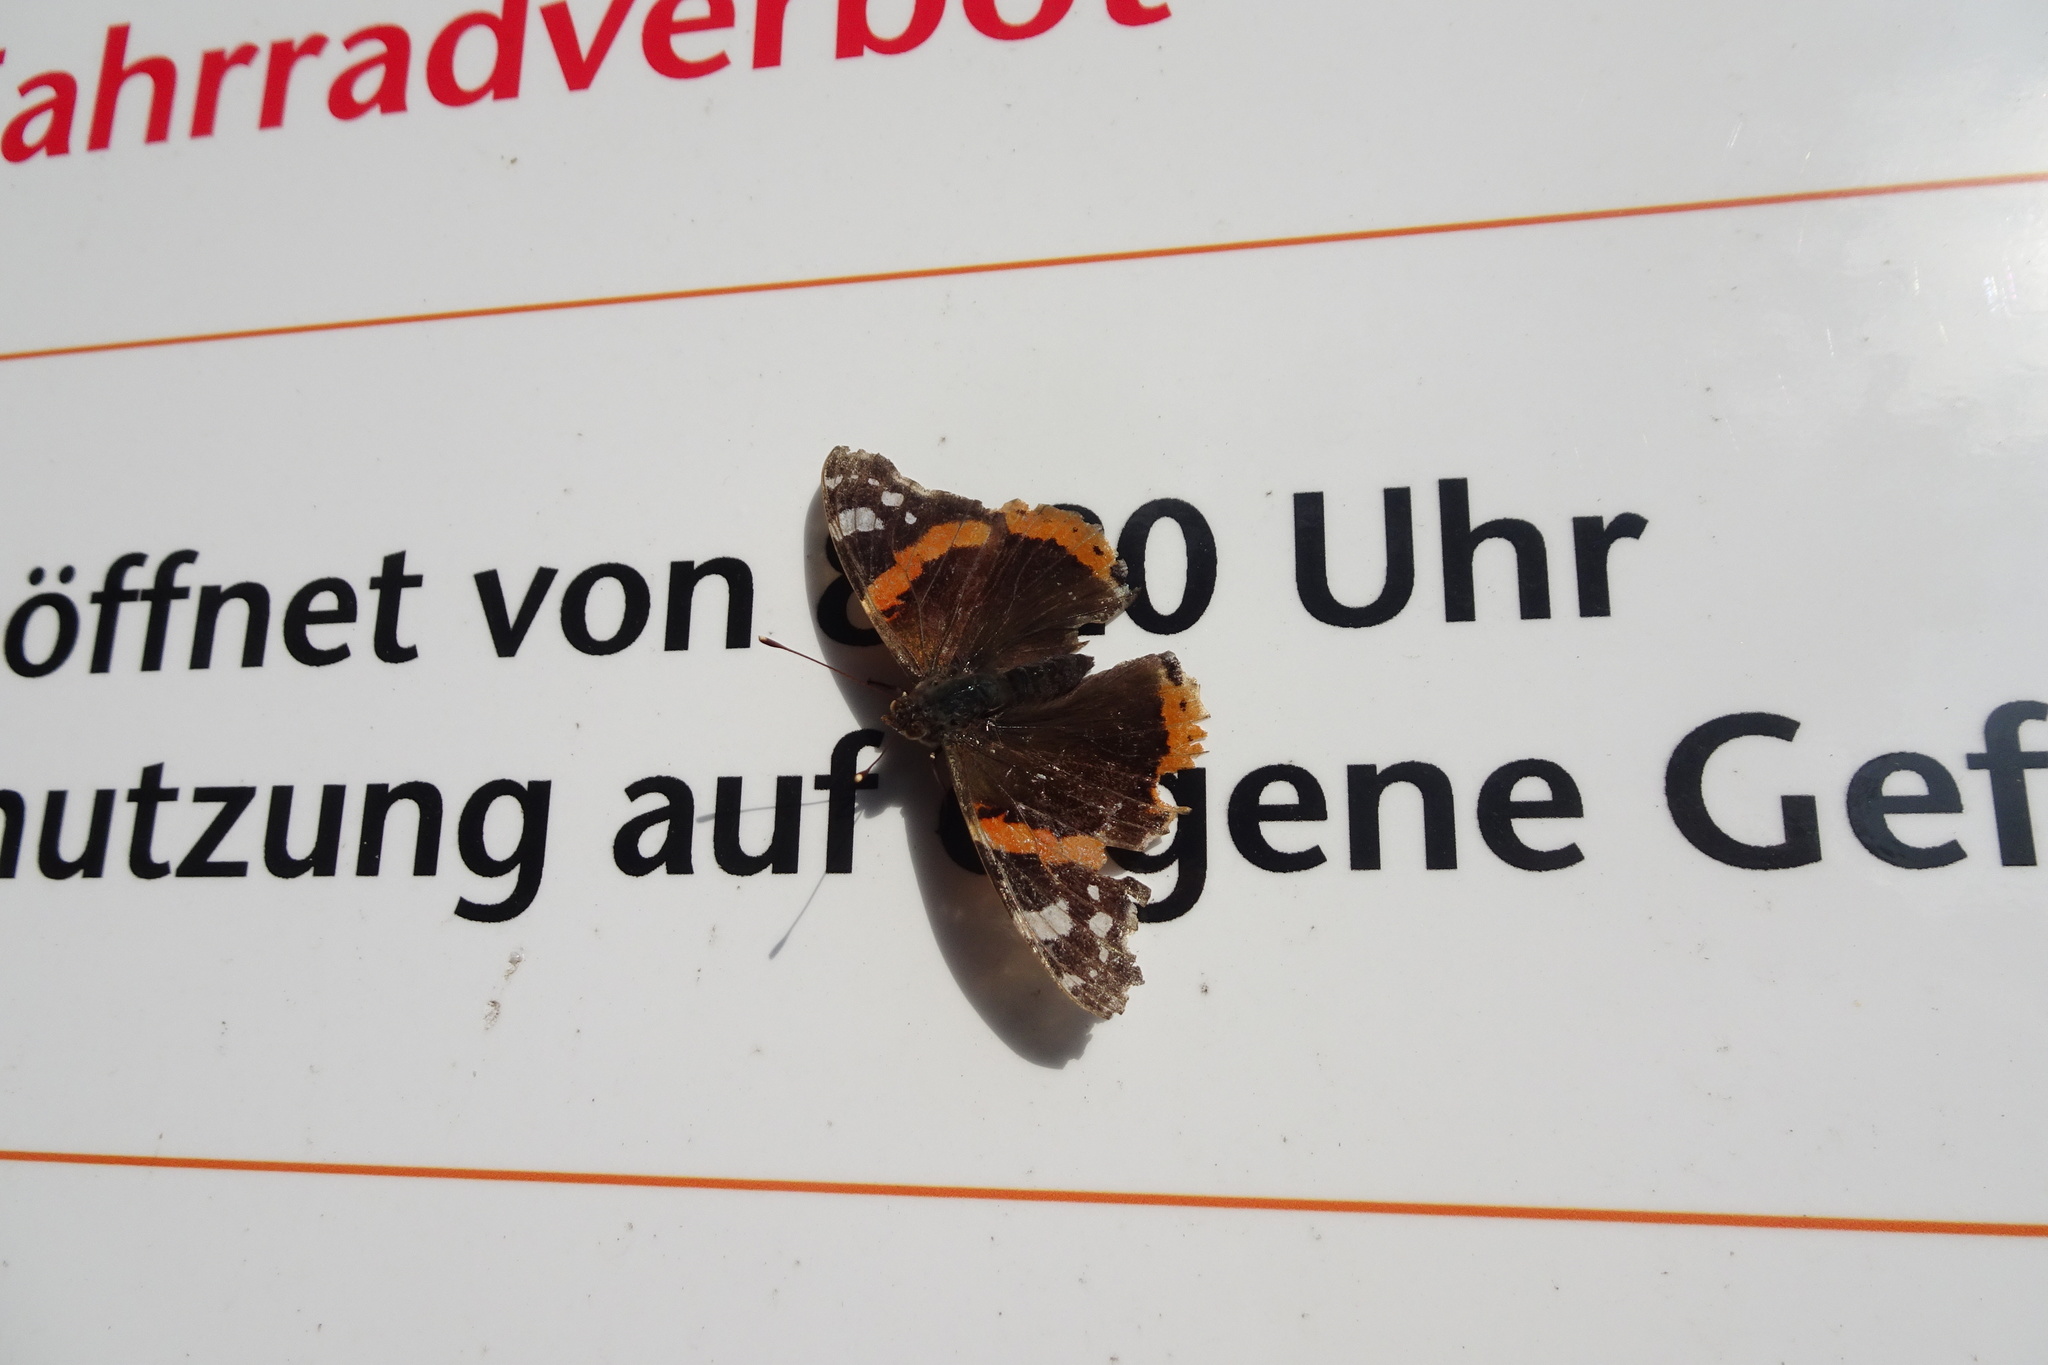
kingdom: Animalia
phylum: Arthropoda
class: Insecta
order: Lepidoptera
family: Nymphalidae
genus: Vanessa
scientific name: Vanessa atalanta
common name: Red admiral
